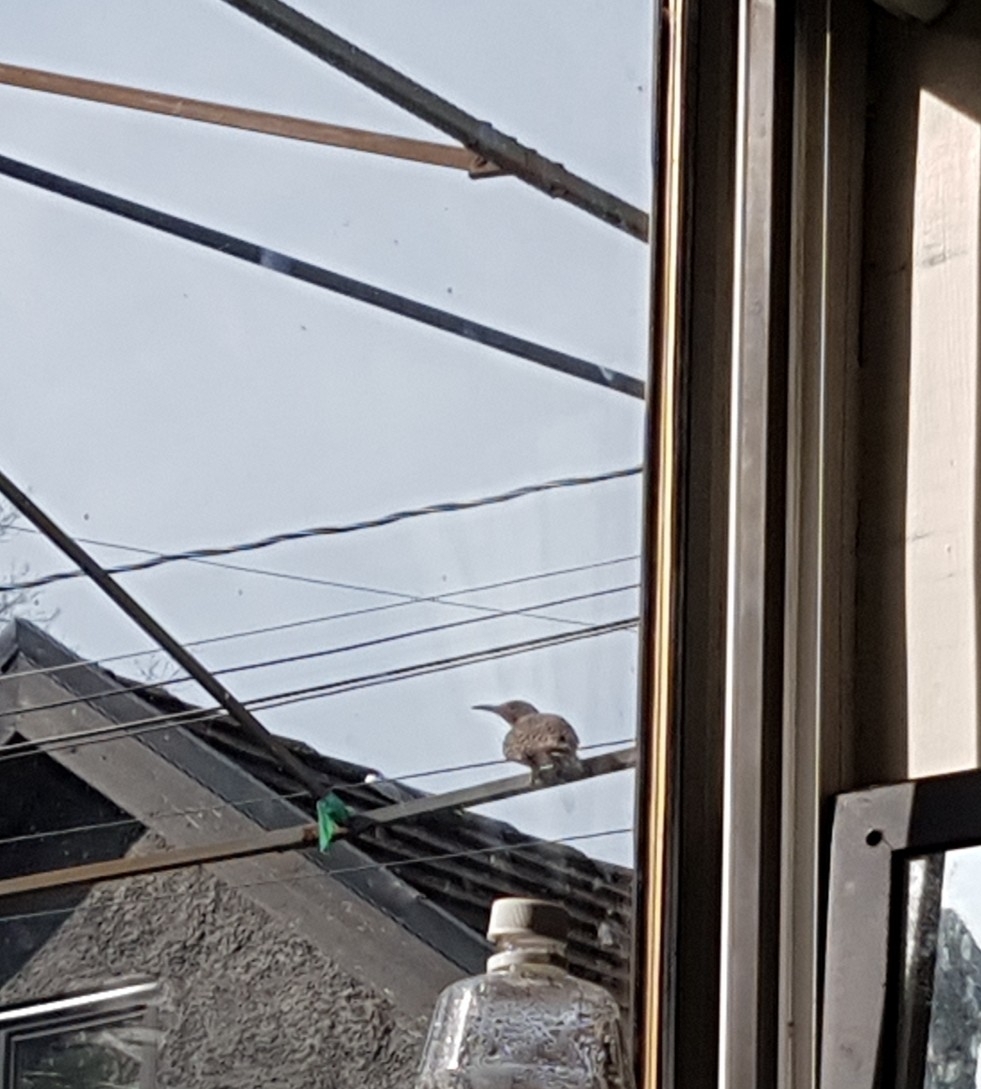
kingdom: Animalia
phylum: Chordata
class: Aves
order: Piciformes
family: Picidae
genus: Colaptes
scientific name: Colaptes auratus
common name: Northern flicker
